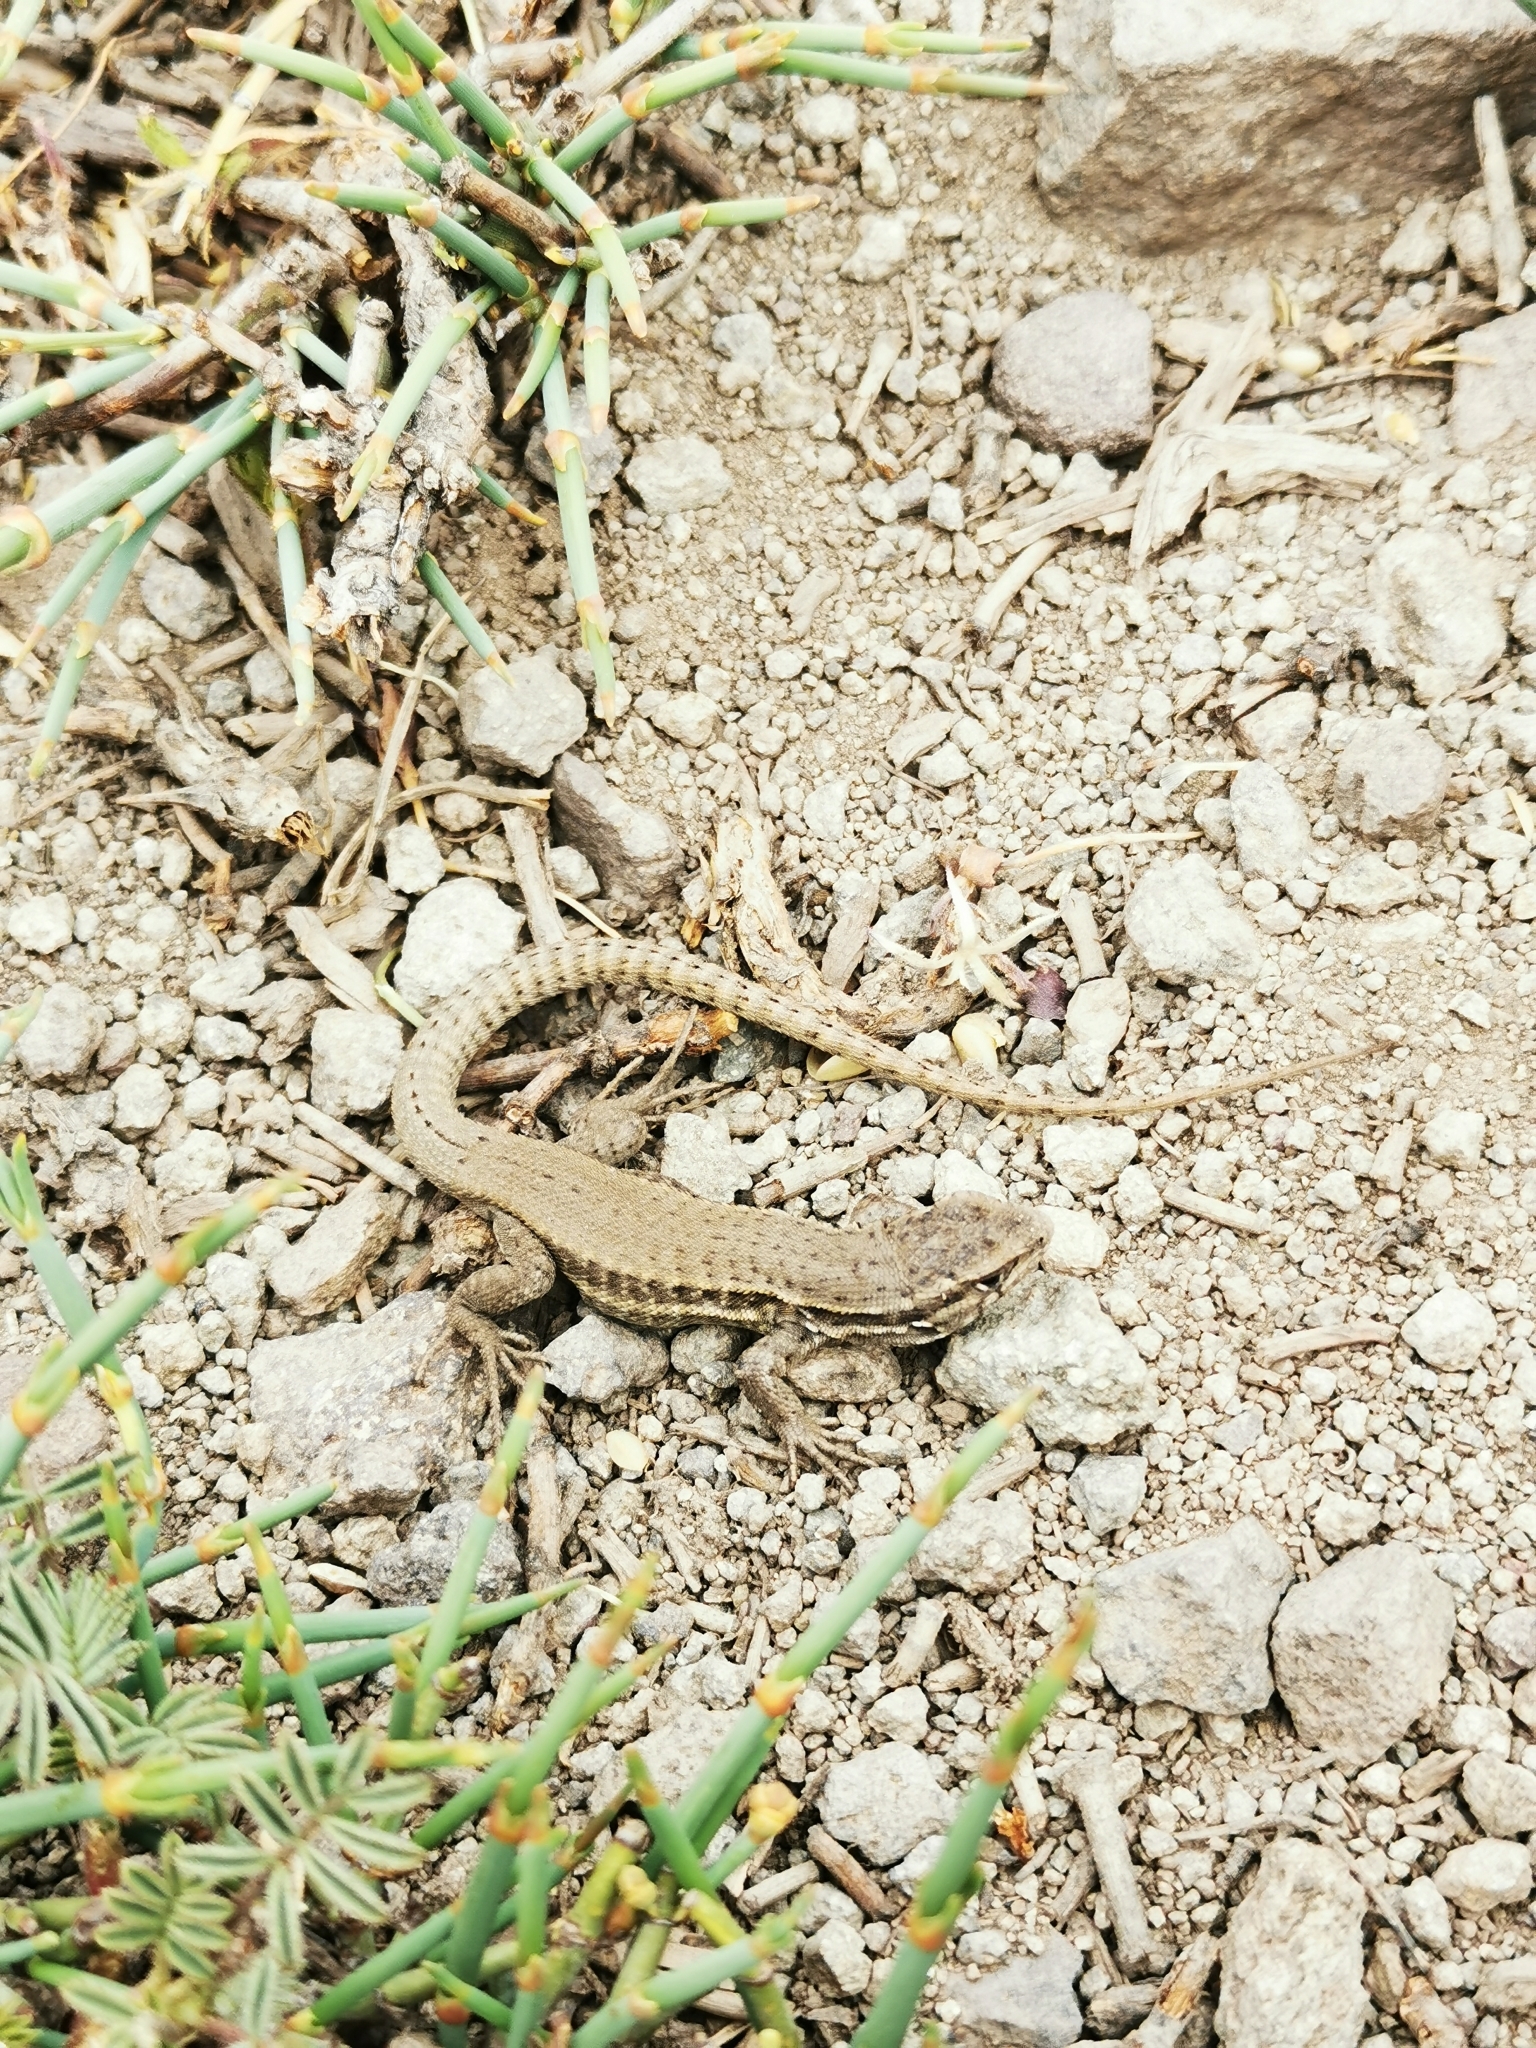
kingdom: Animalia
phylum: Chordata
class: Squamata
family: Liolaemidae
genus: Liolaemus
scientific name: Liolaemus nigroviridis
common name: Black-green tree iguana
